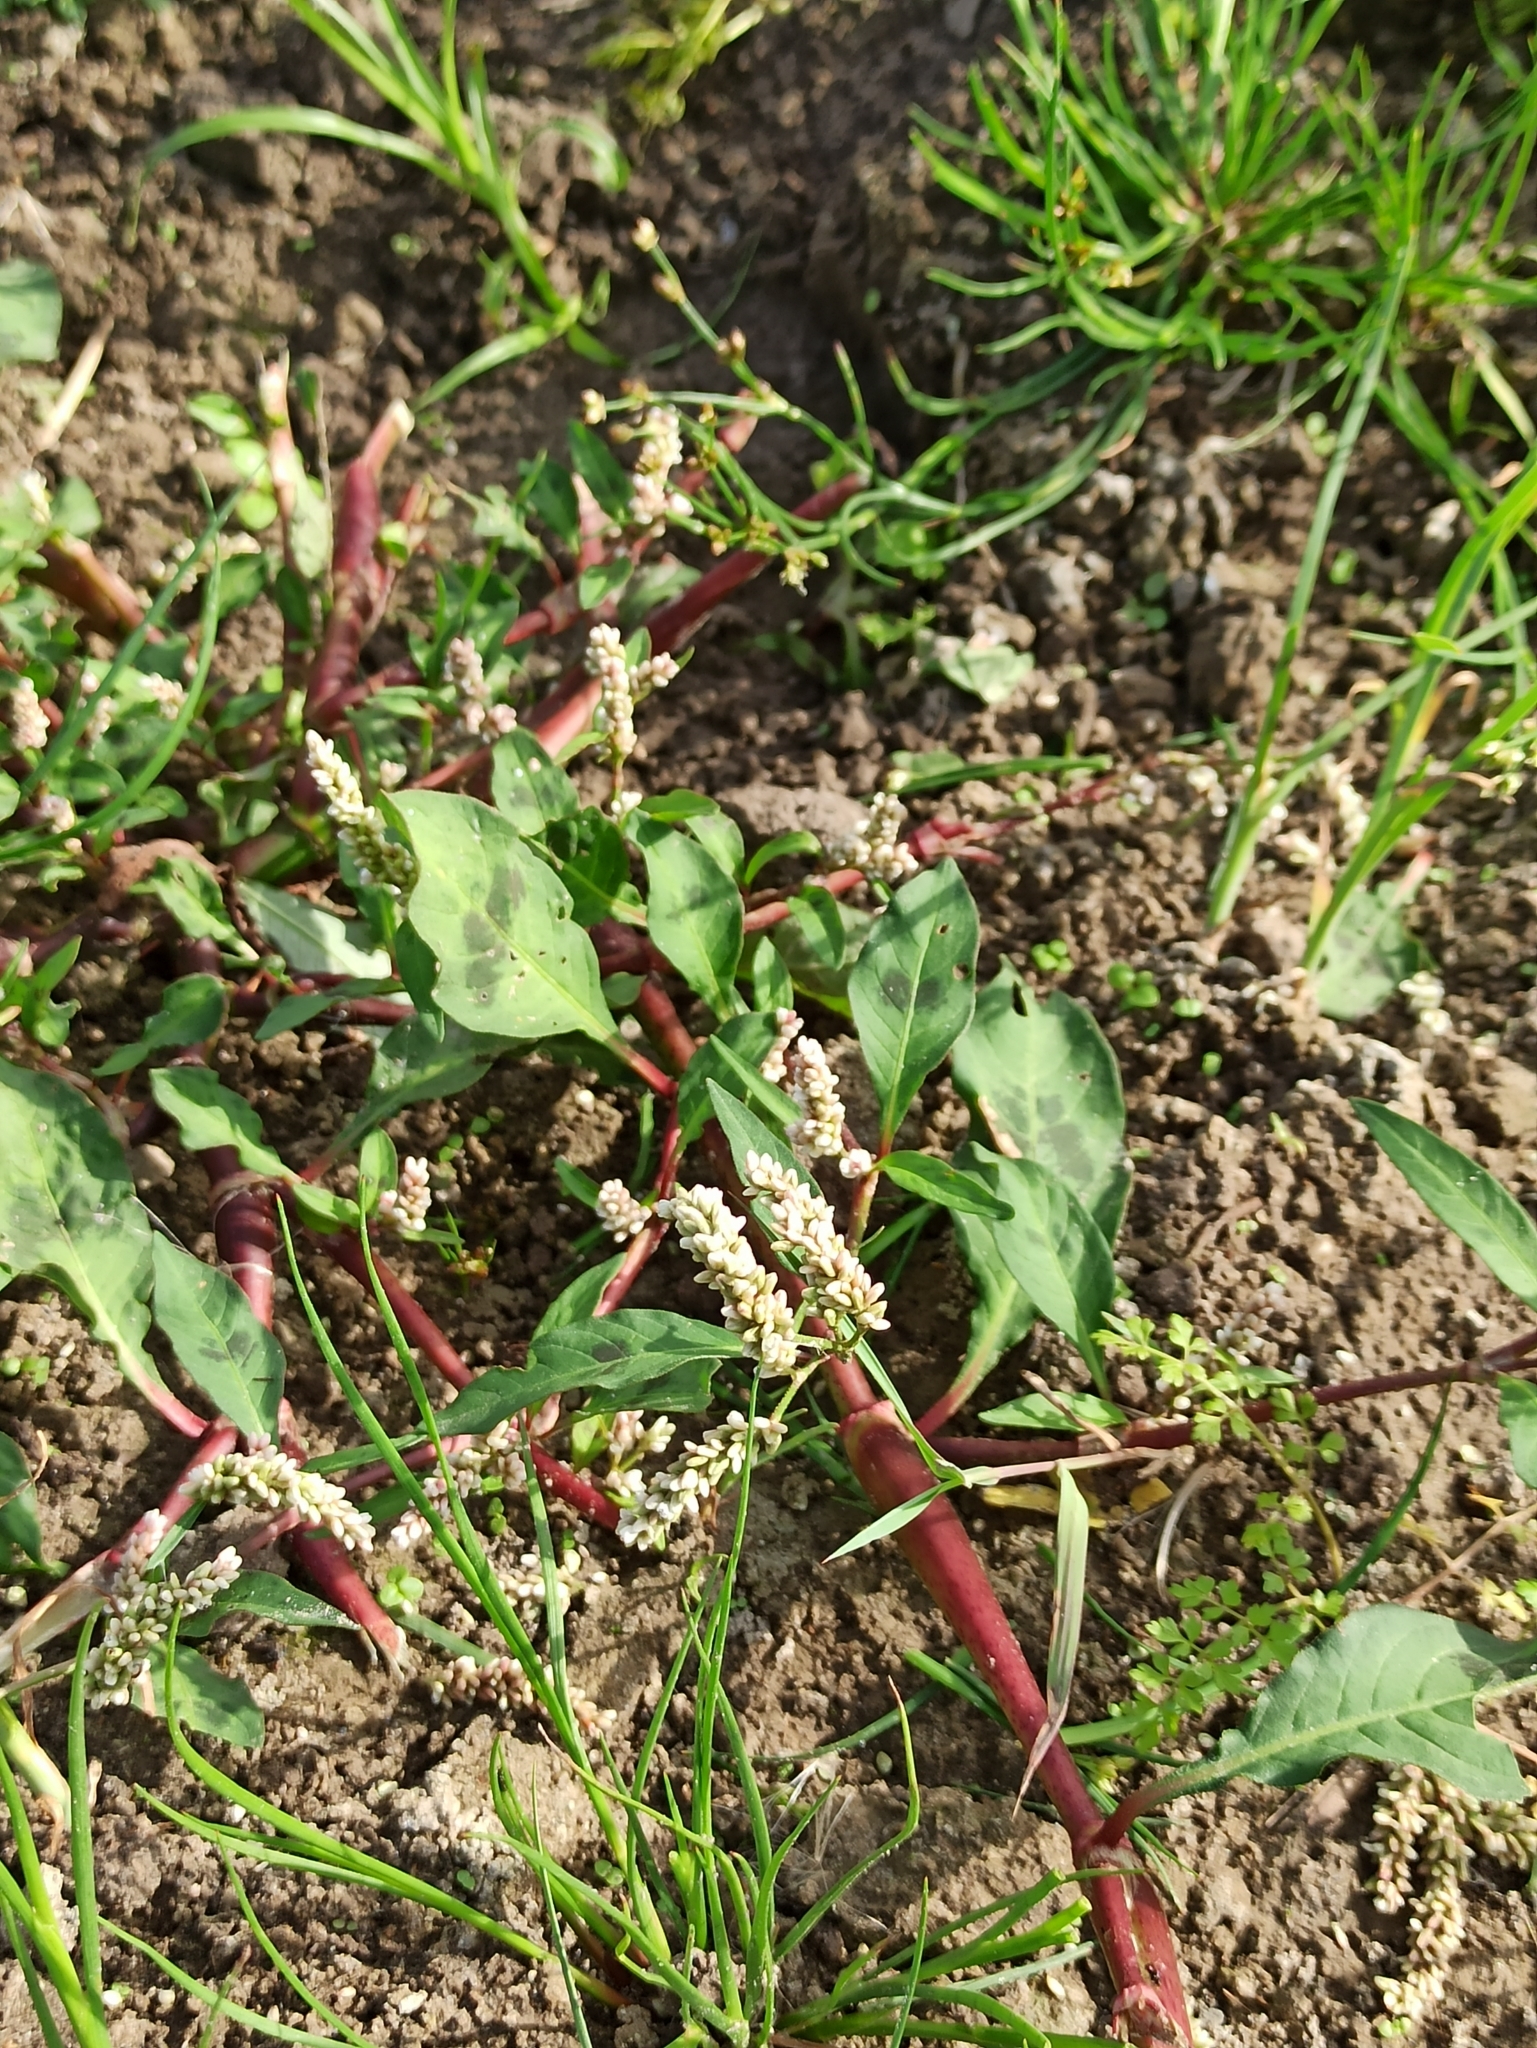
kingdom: Plantae
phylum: Tracheophyta
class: Magnoliopsida
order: Caryophyllales
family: Polygonaceae
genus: Persicaria
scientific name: Persicaria maculosa
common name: Redshank
